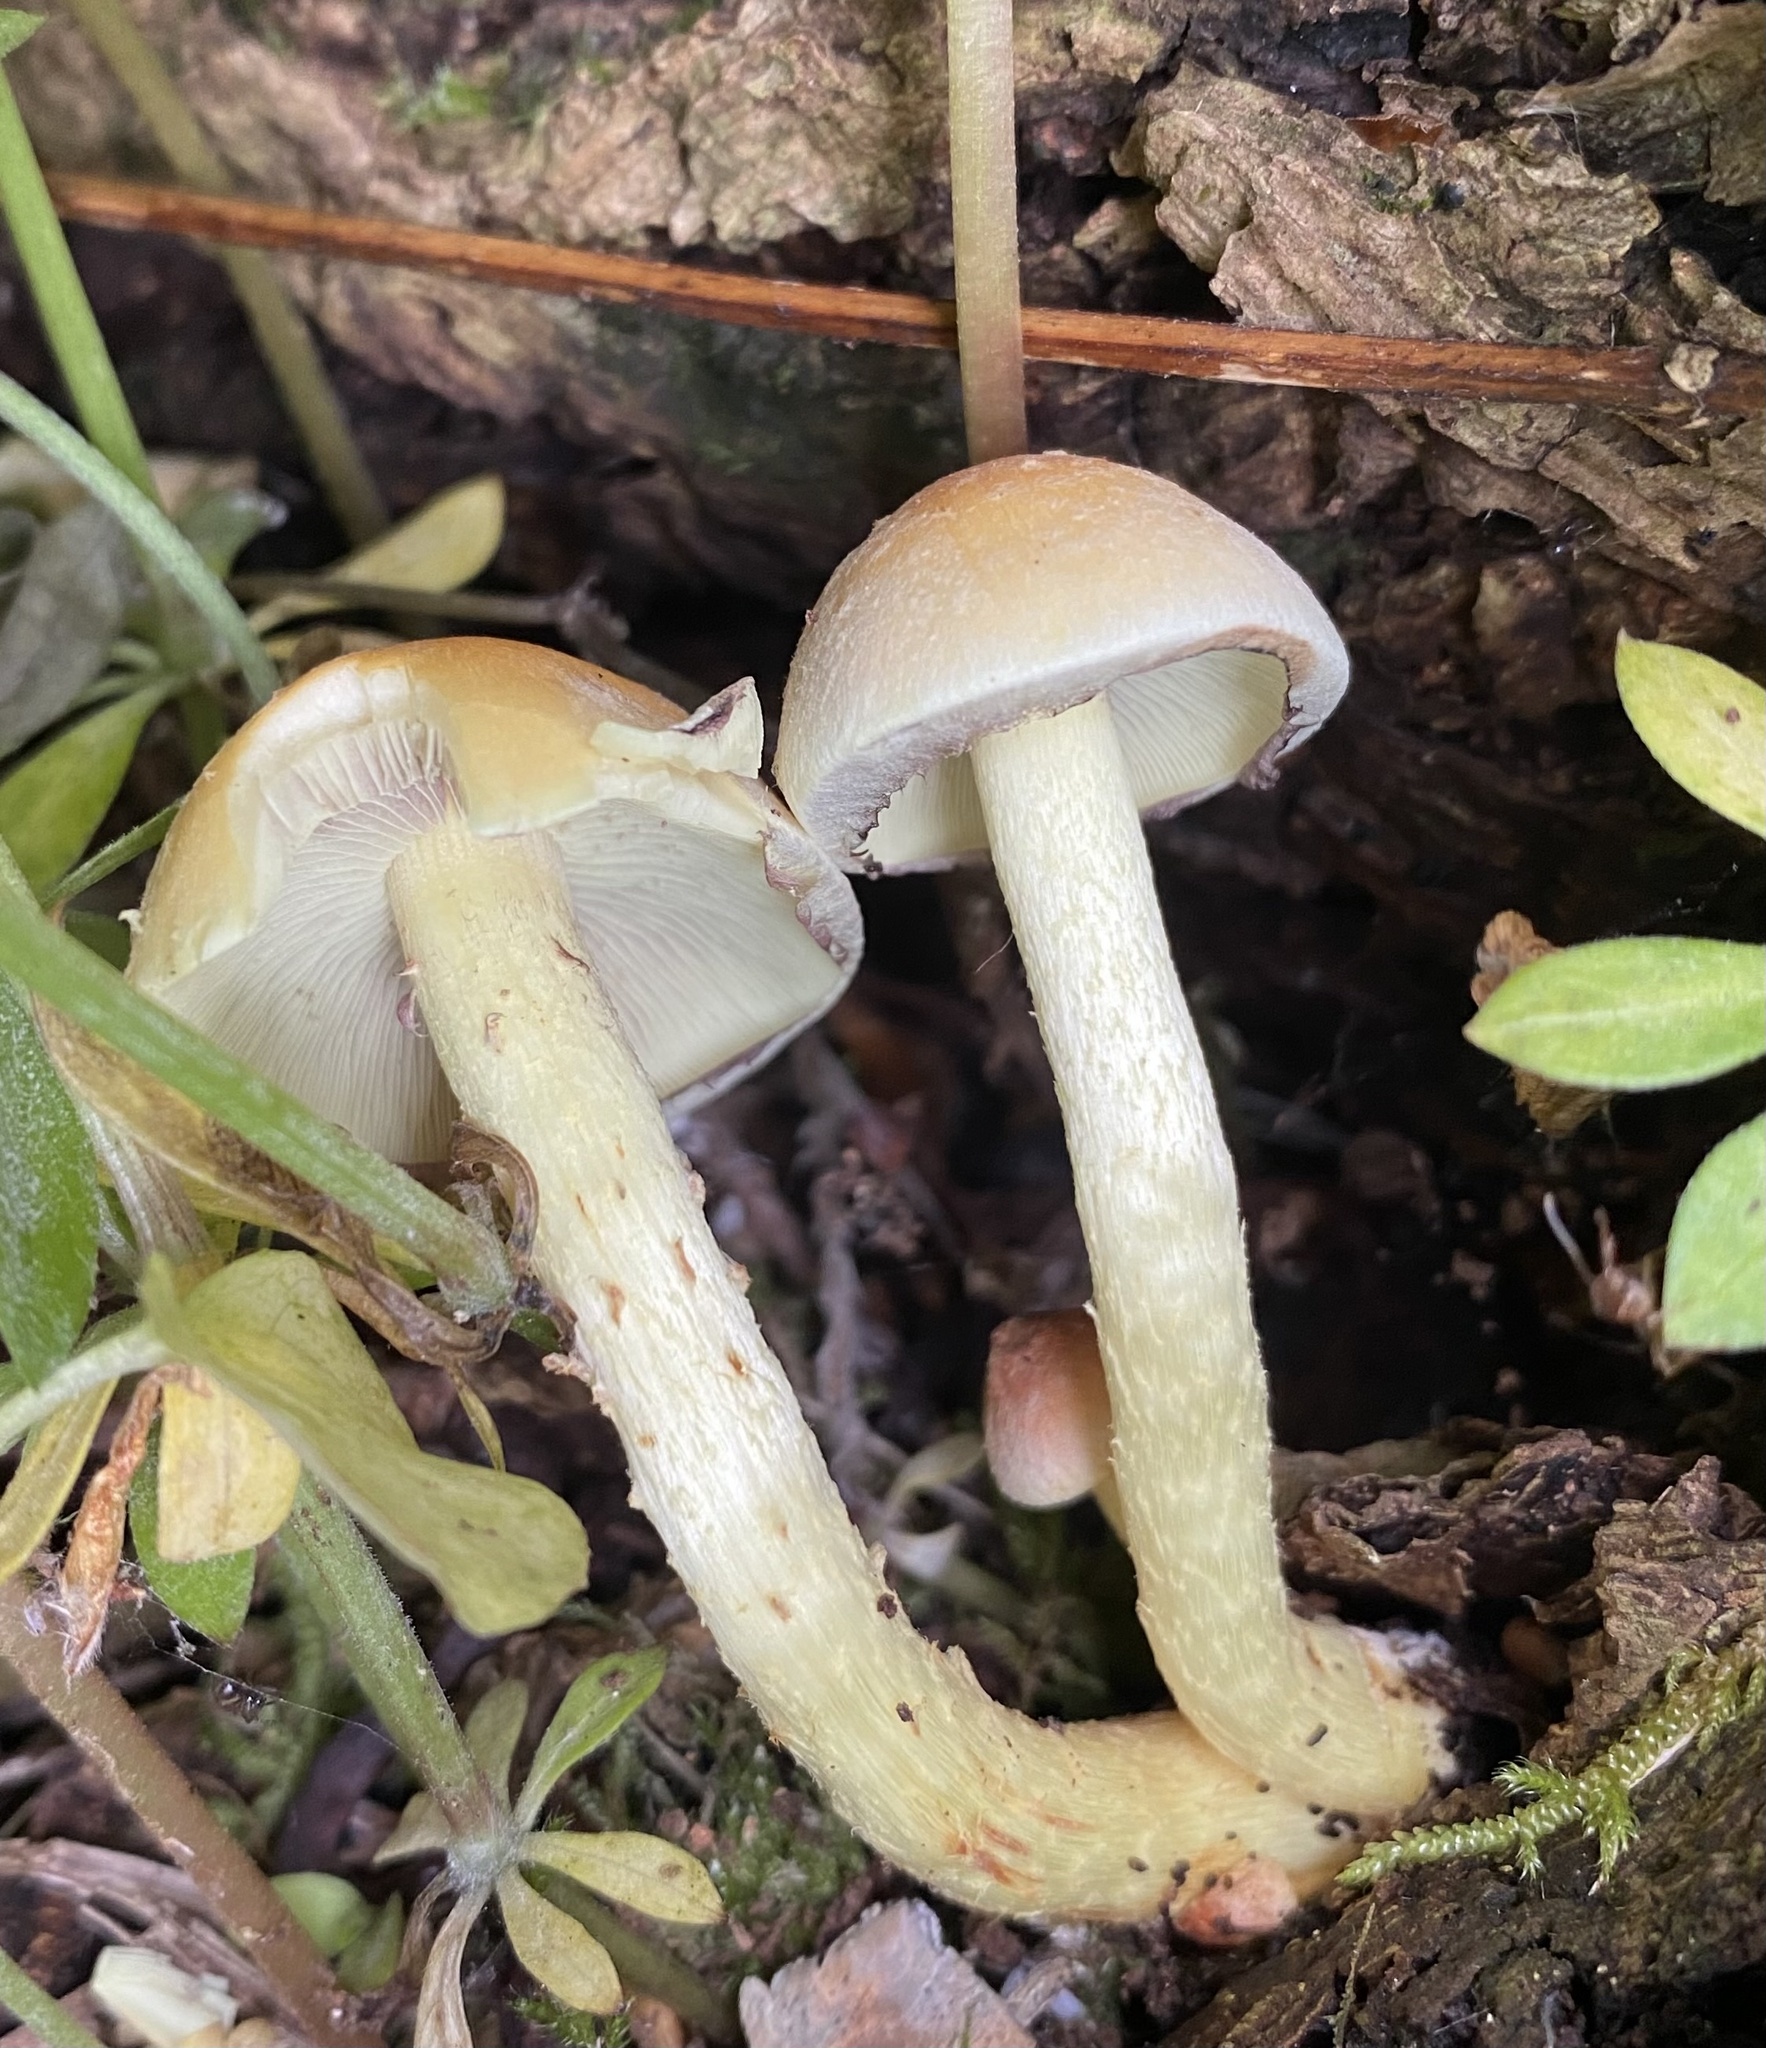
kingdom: Fungi
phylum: Basidiomycota
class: Agaricomycetes
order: Agaricales
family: Strophariaceae
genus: Hypholoma
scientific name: Hypholoma fasciculare
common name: Sulphur tuft
